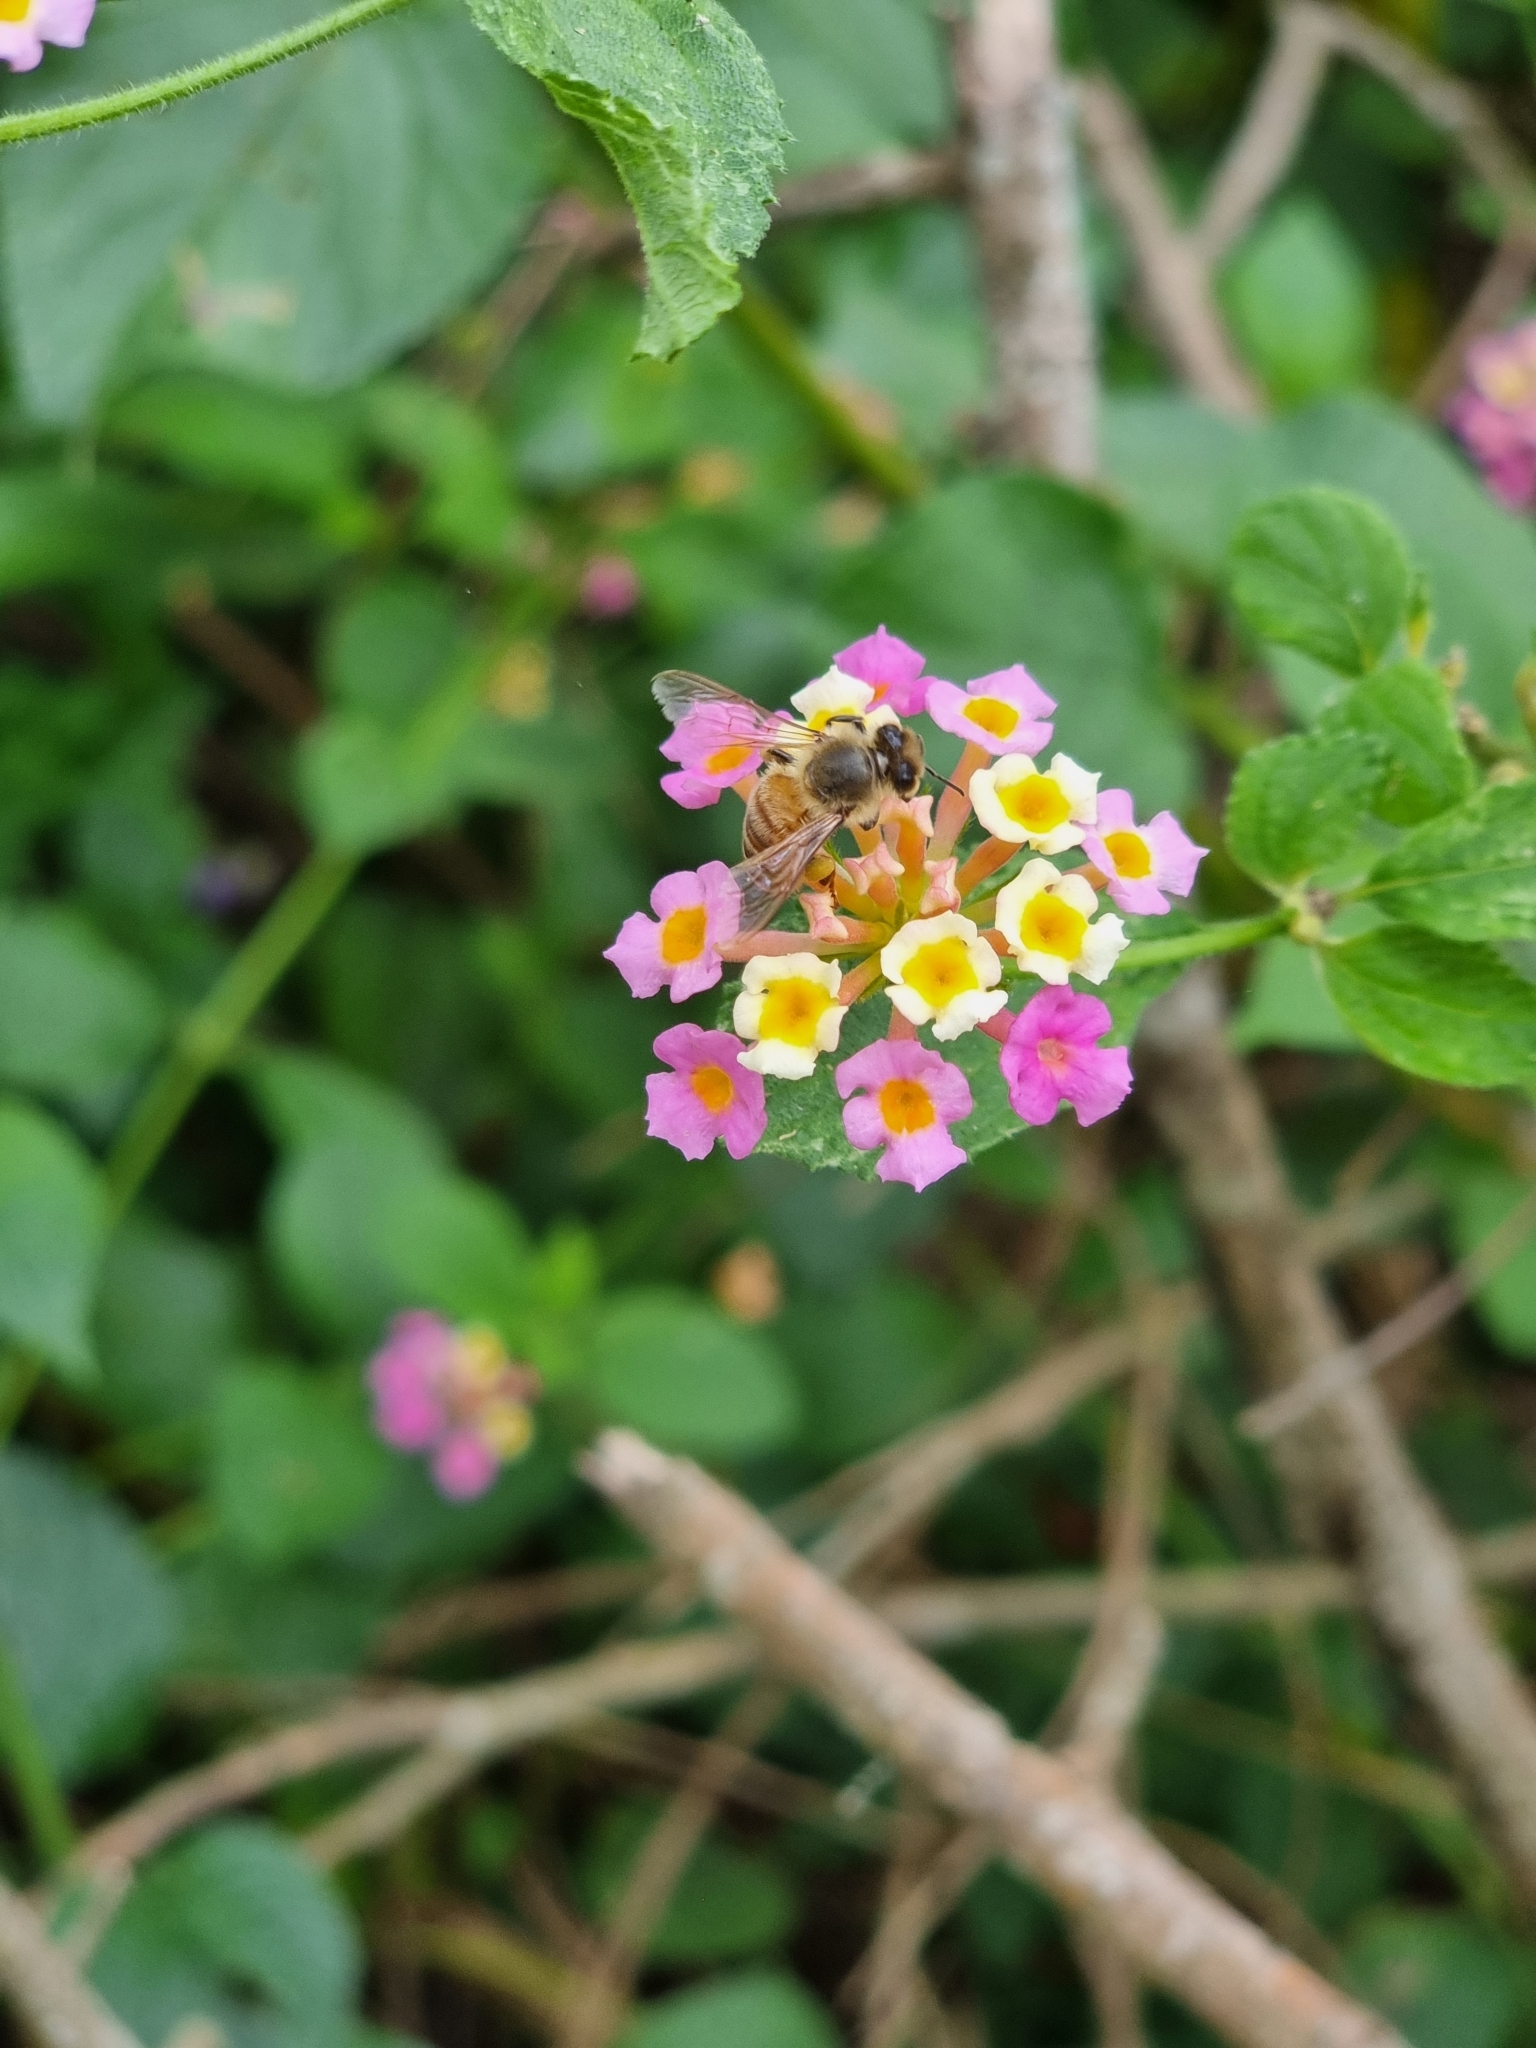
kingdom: Animalia
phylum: Arthropoda
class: Insecta
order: Hymenoptera
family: Apidae
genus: Apis
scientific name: Apis mellifera
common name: Honey bee
